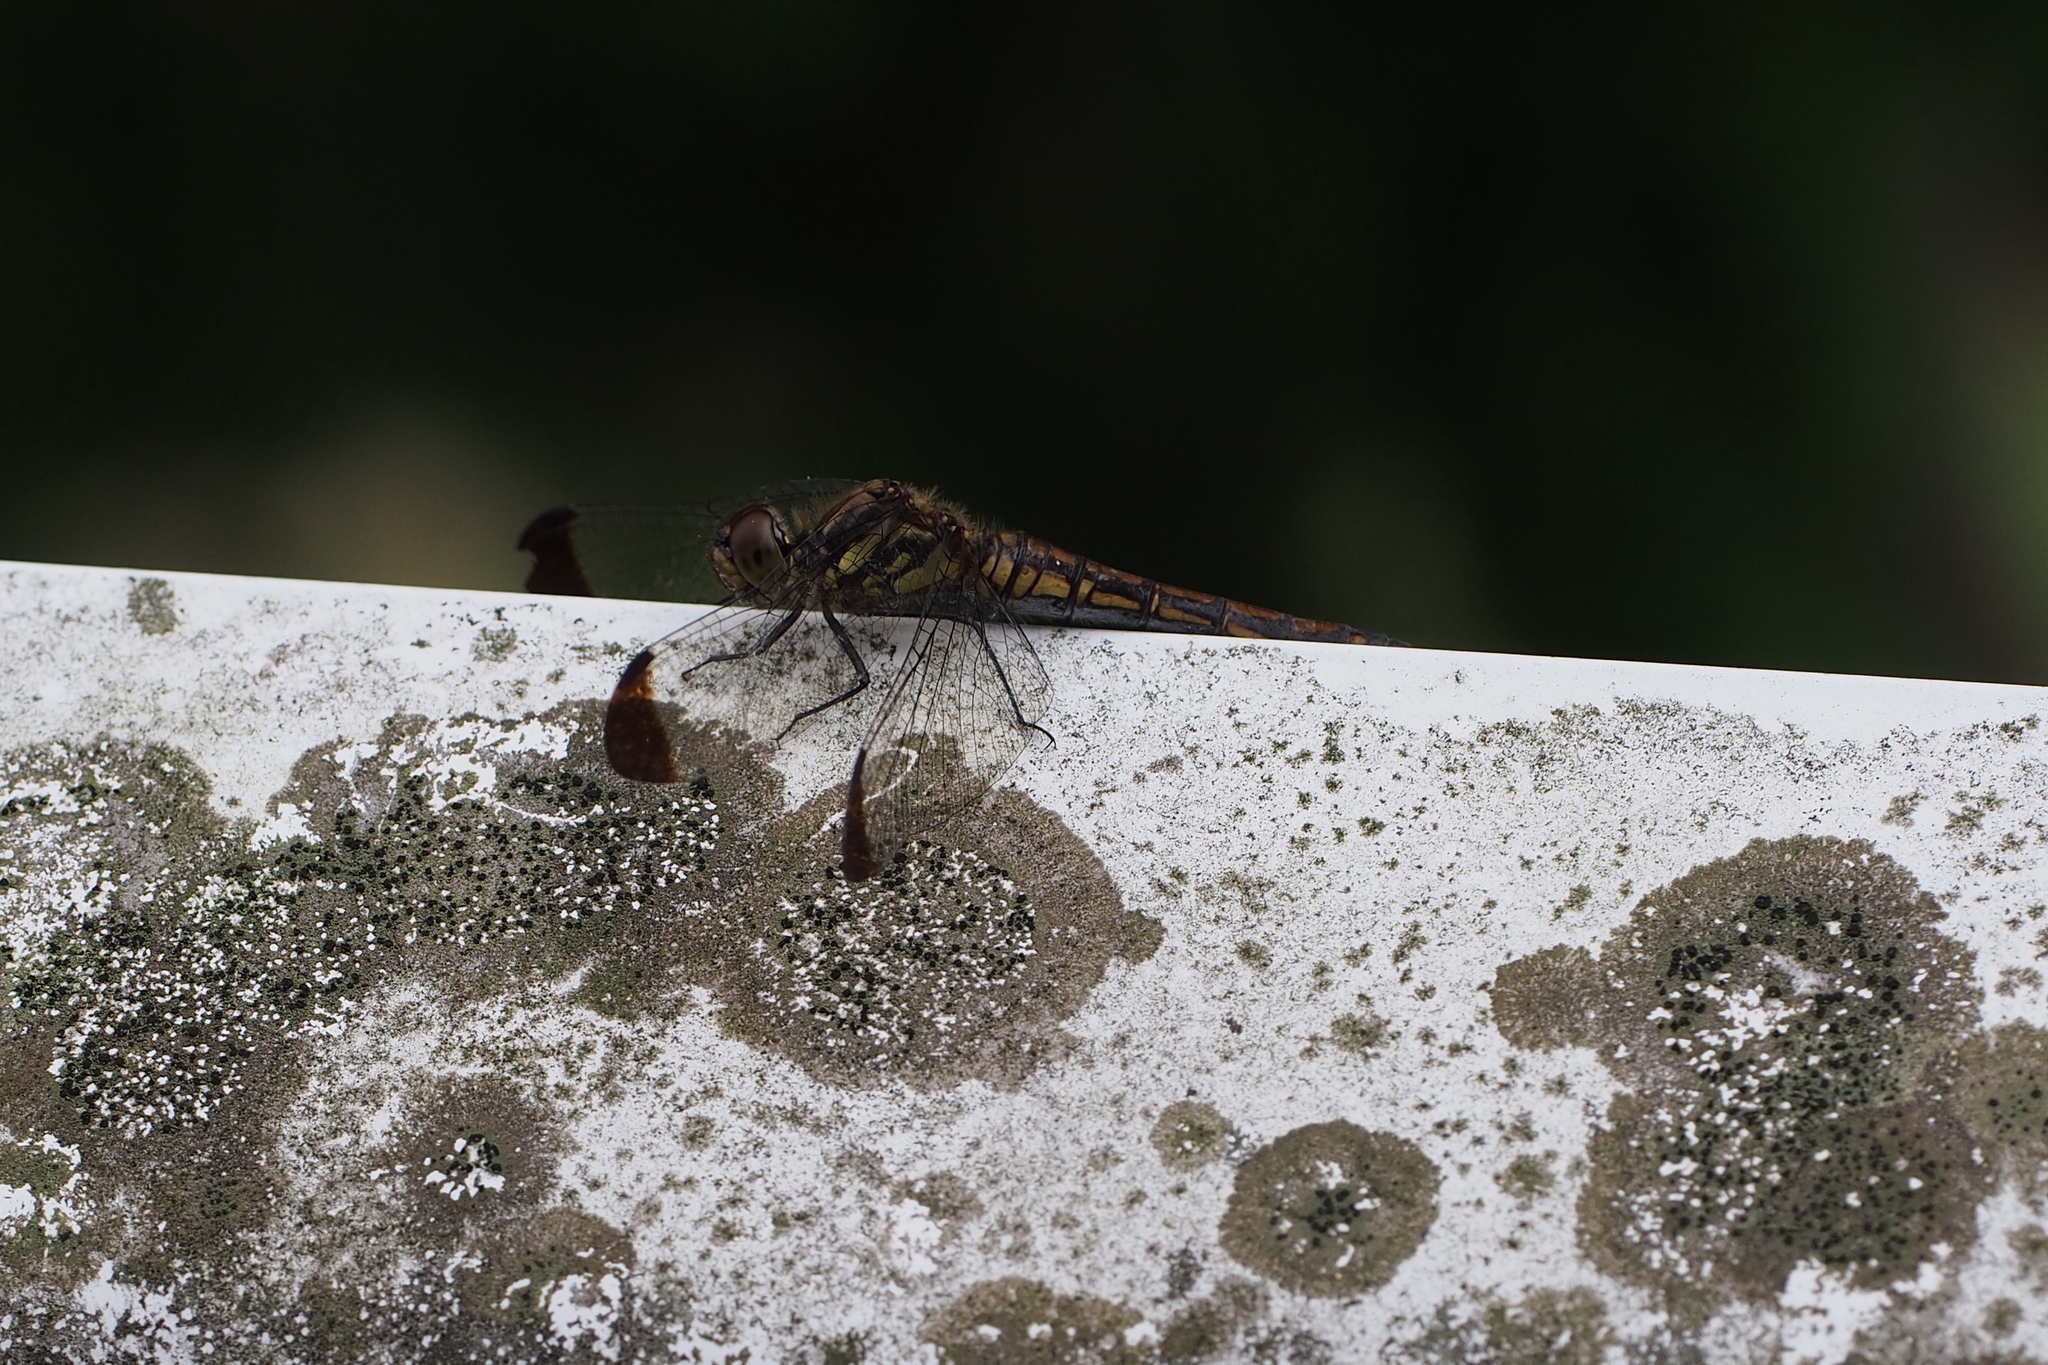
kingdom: Animalia
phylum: Arthropoda
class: Insecta
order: Odonata
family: Libellulidae
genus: Sympetrum
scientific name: Sympetrum baccha
